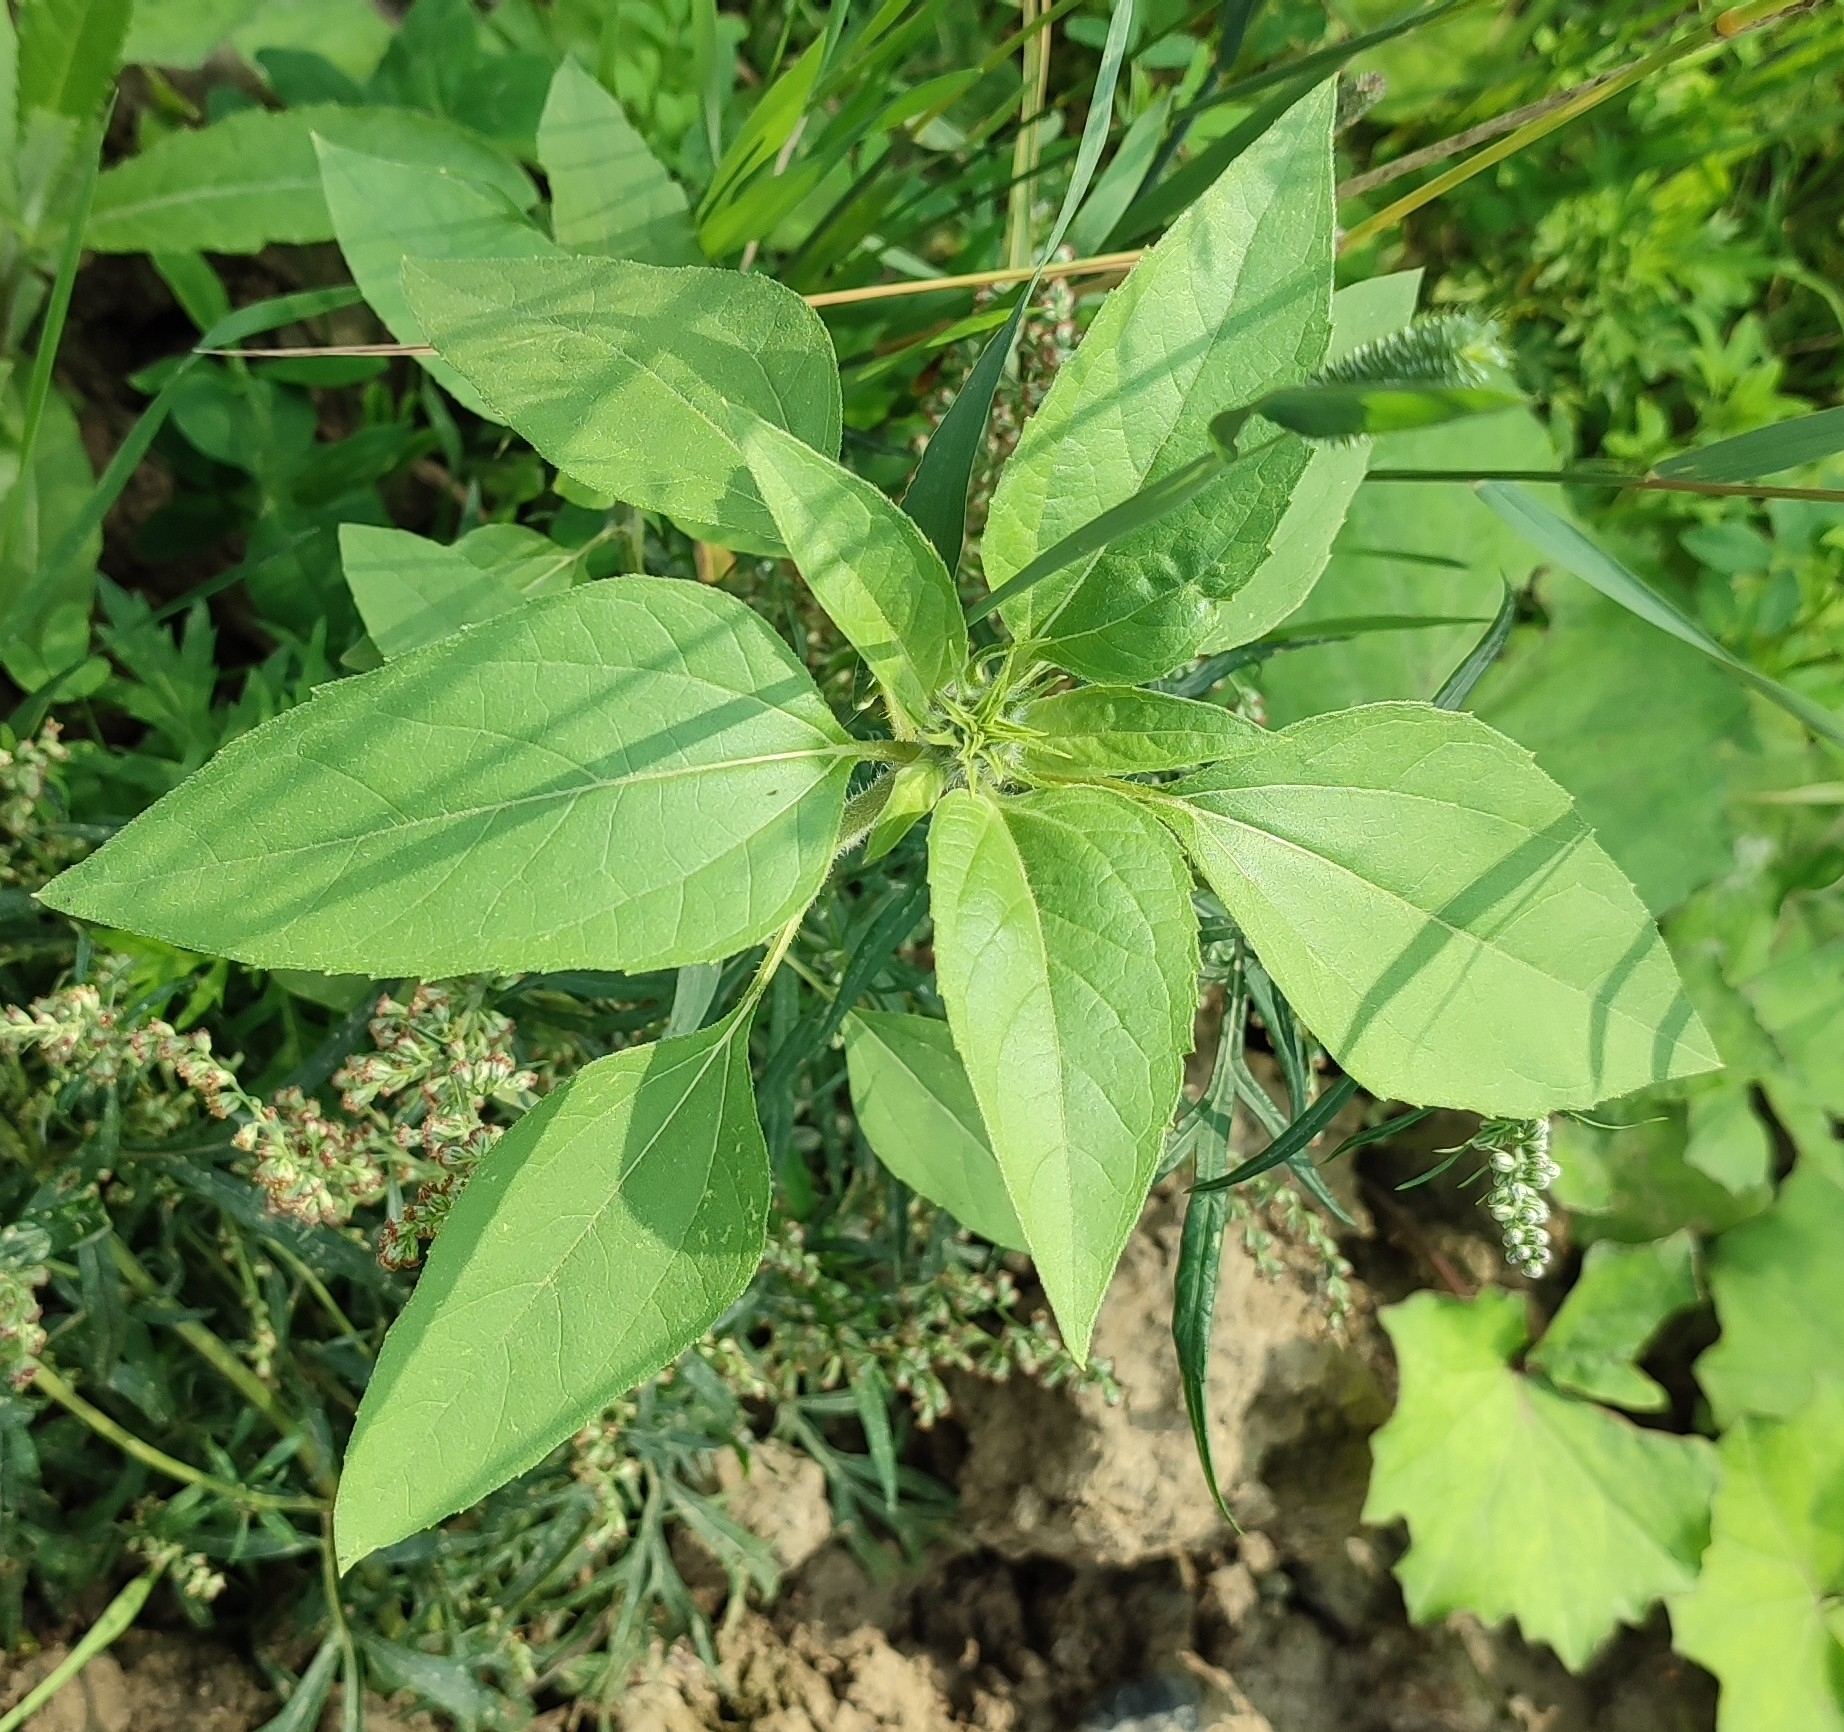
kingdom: Plantae
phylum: Tracheophyta
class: Magnoliopsida
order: Asterales
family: Asteraceae
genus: Helianthus
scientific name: Helianthus annuus
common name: Sunflower
